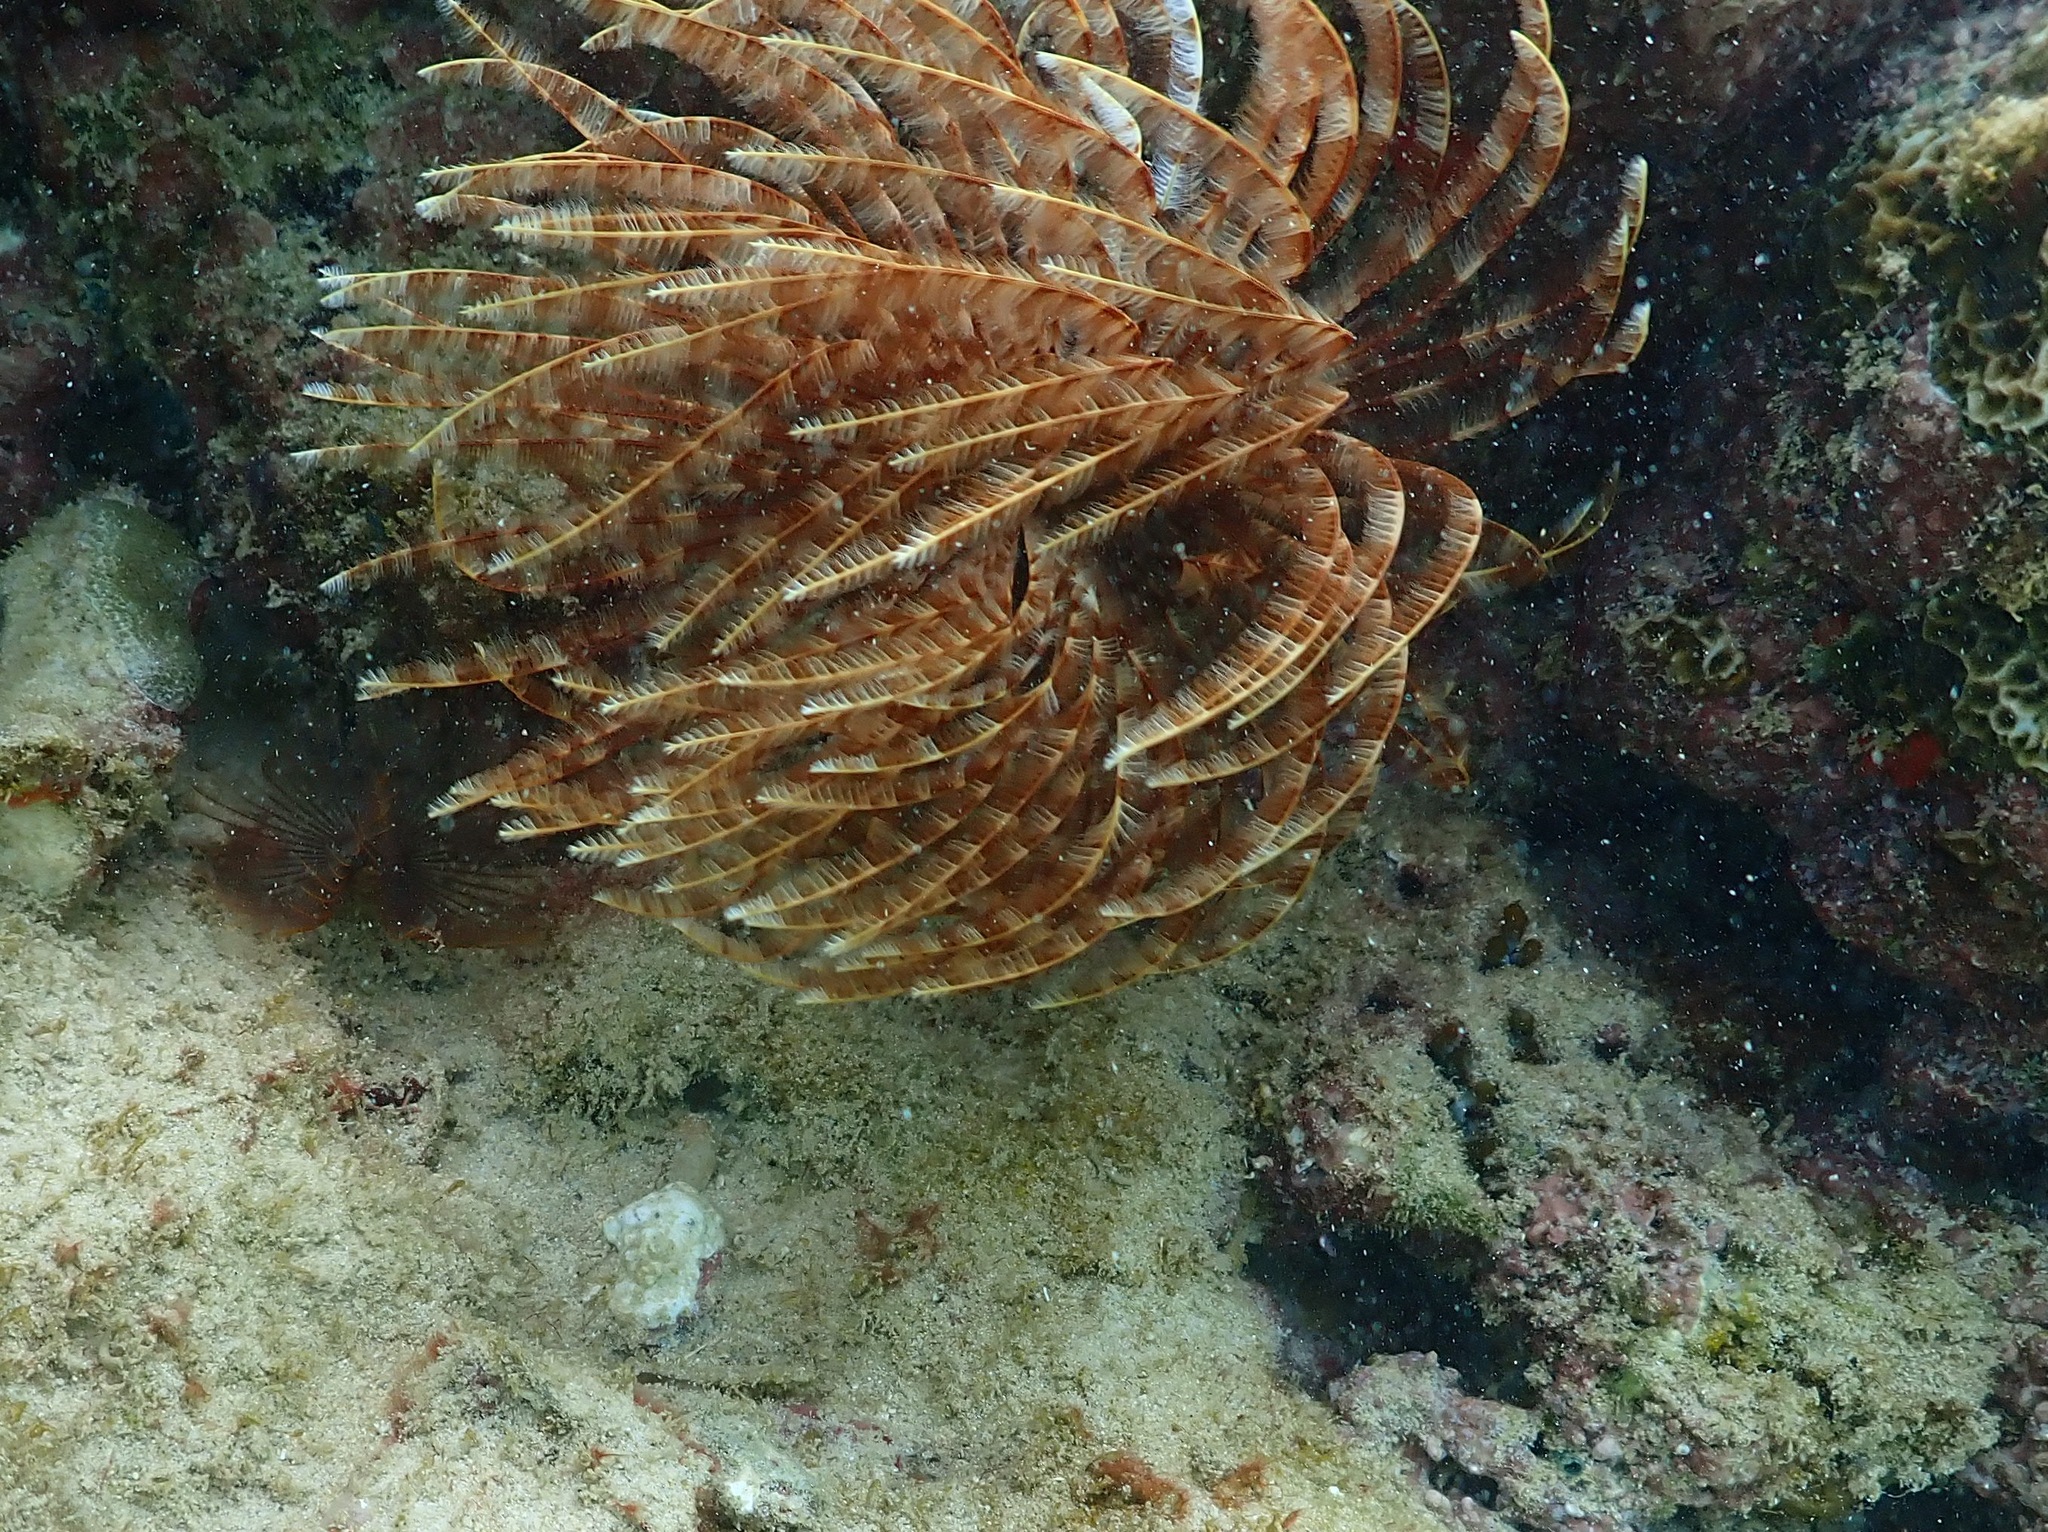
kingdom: Animalia
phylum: Annelida
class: Polychaeta
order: Sabellida
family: Sabellidae
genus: Sabellastarte
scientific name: Sabellastarte magnifica
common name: Giant feather-duster worm
